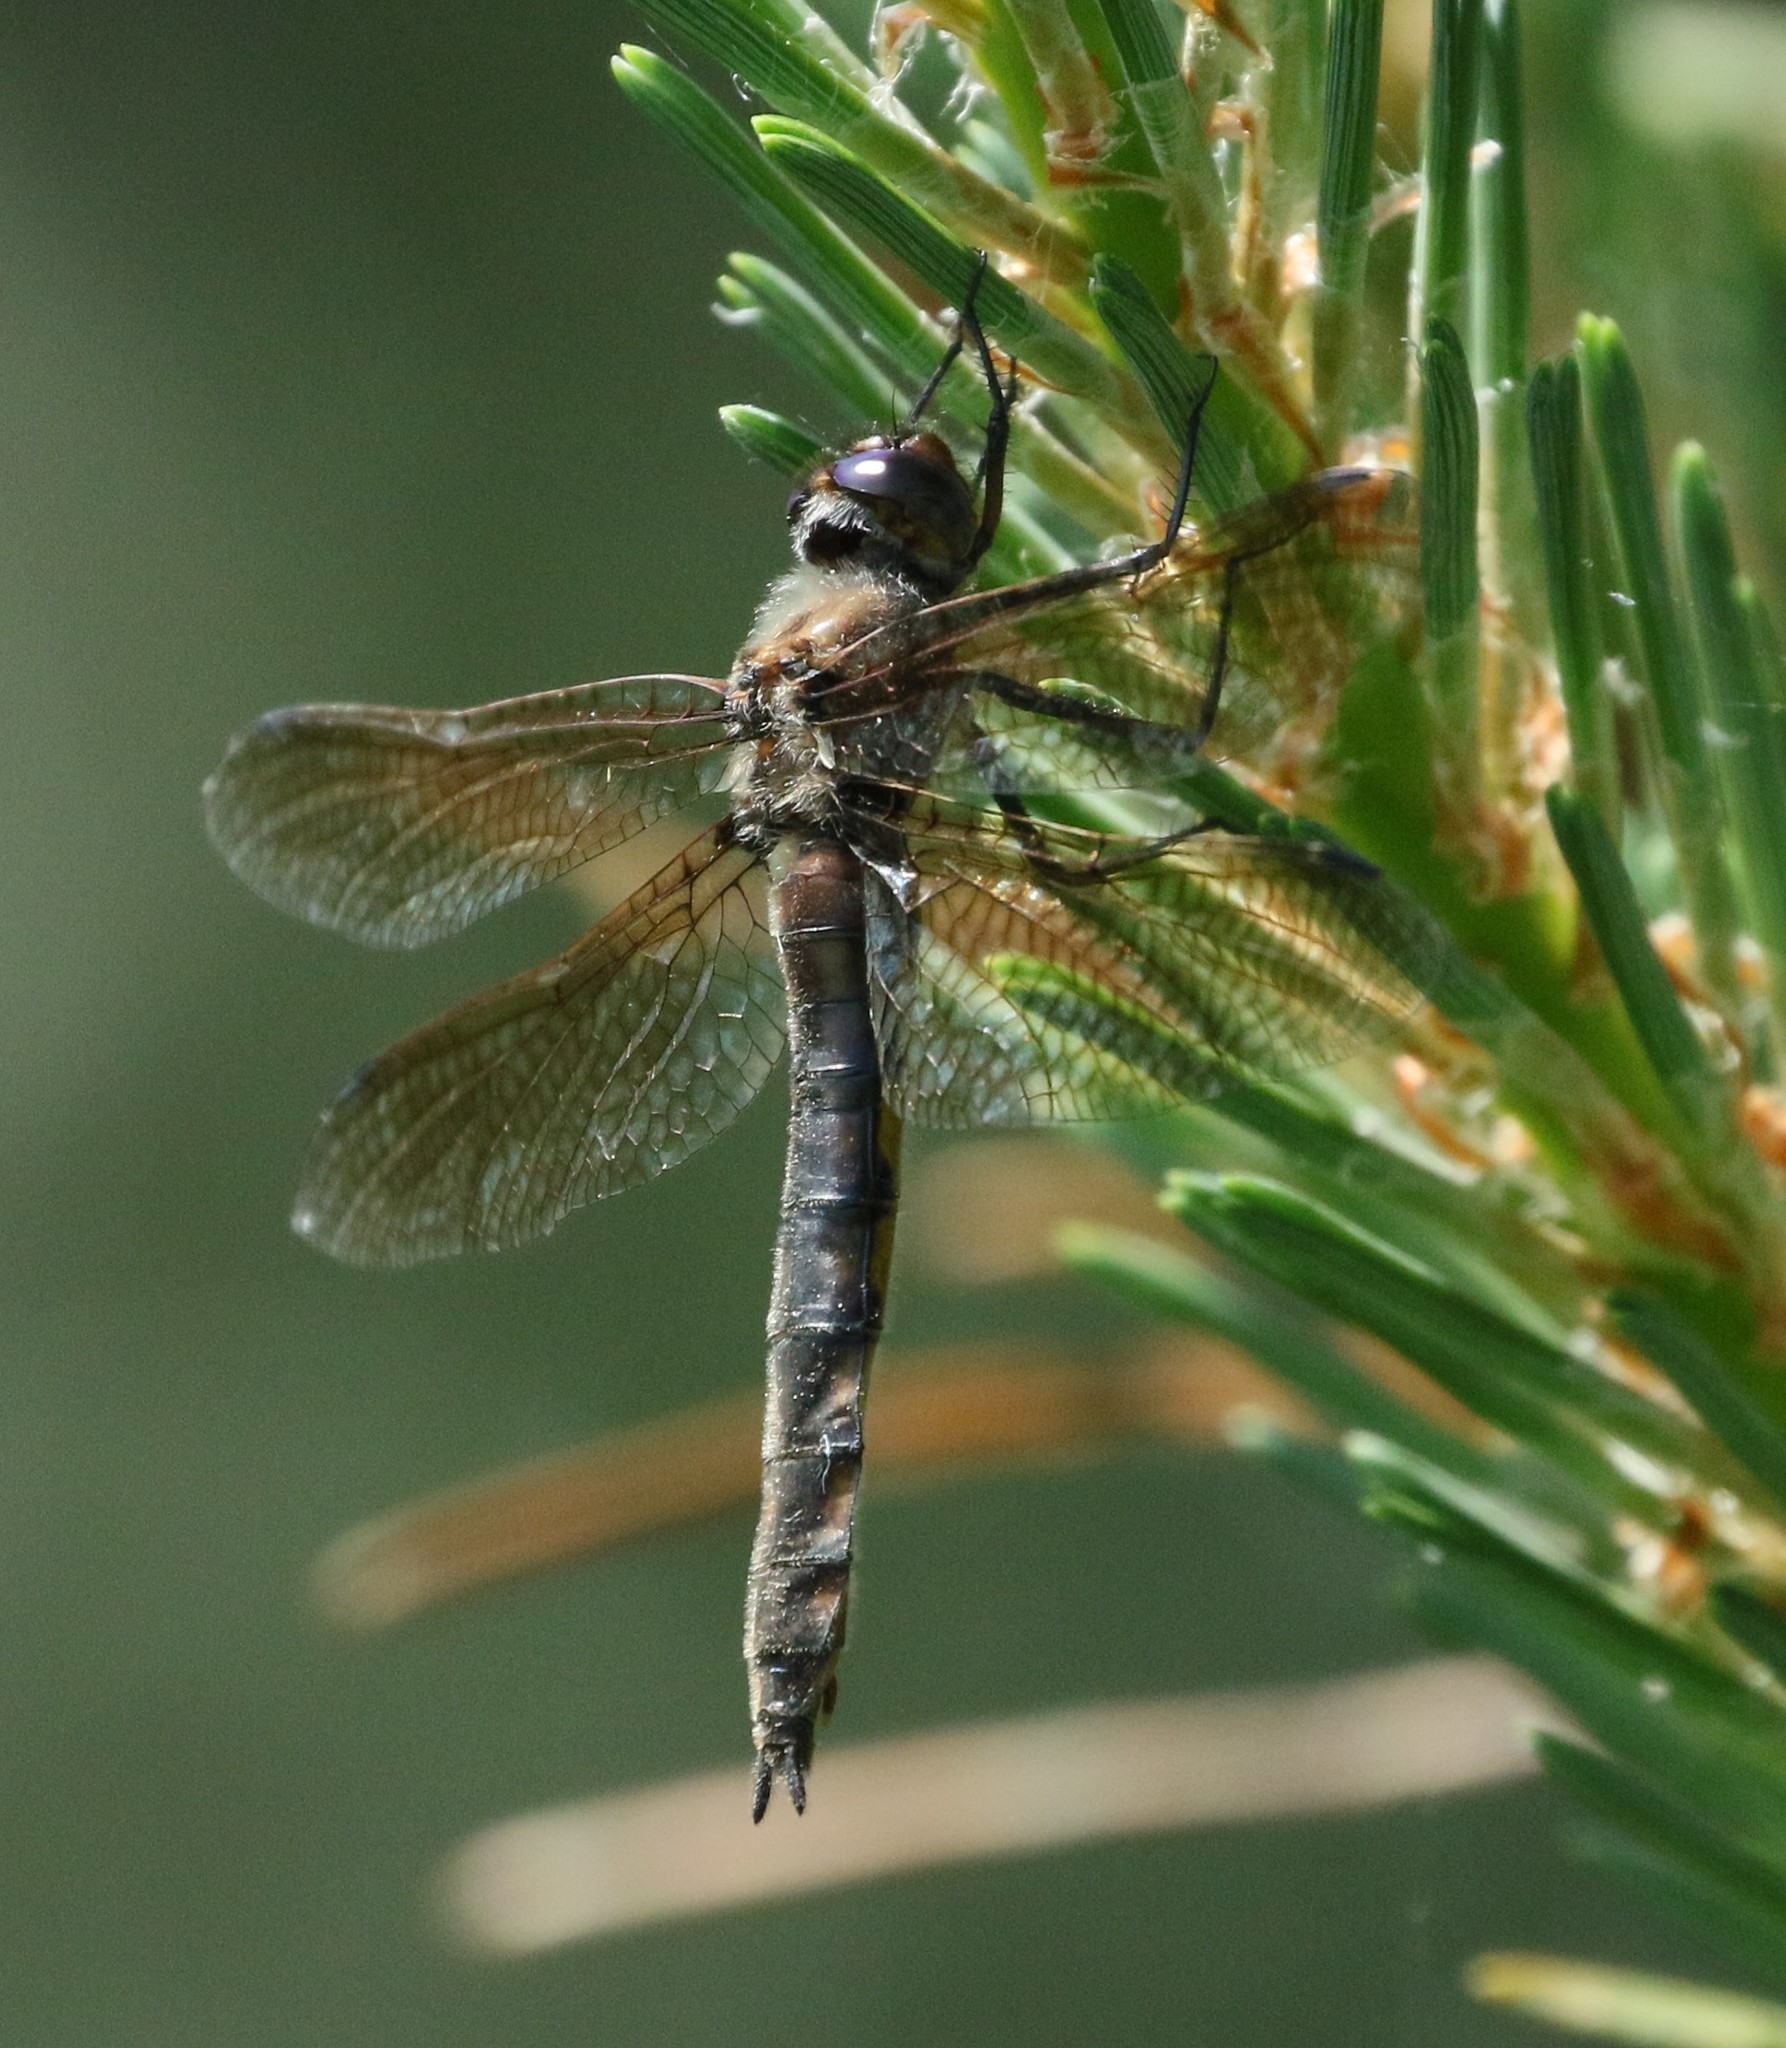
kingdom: Animalia
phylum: Arthropoda
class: Insecta
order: Odonata
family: Corduliidae
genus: Epitheca
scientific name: Epitheca canis
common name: Beaverpond baskettail
